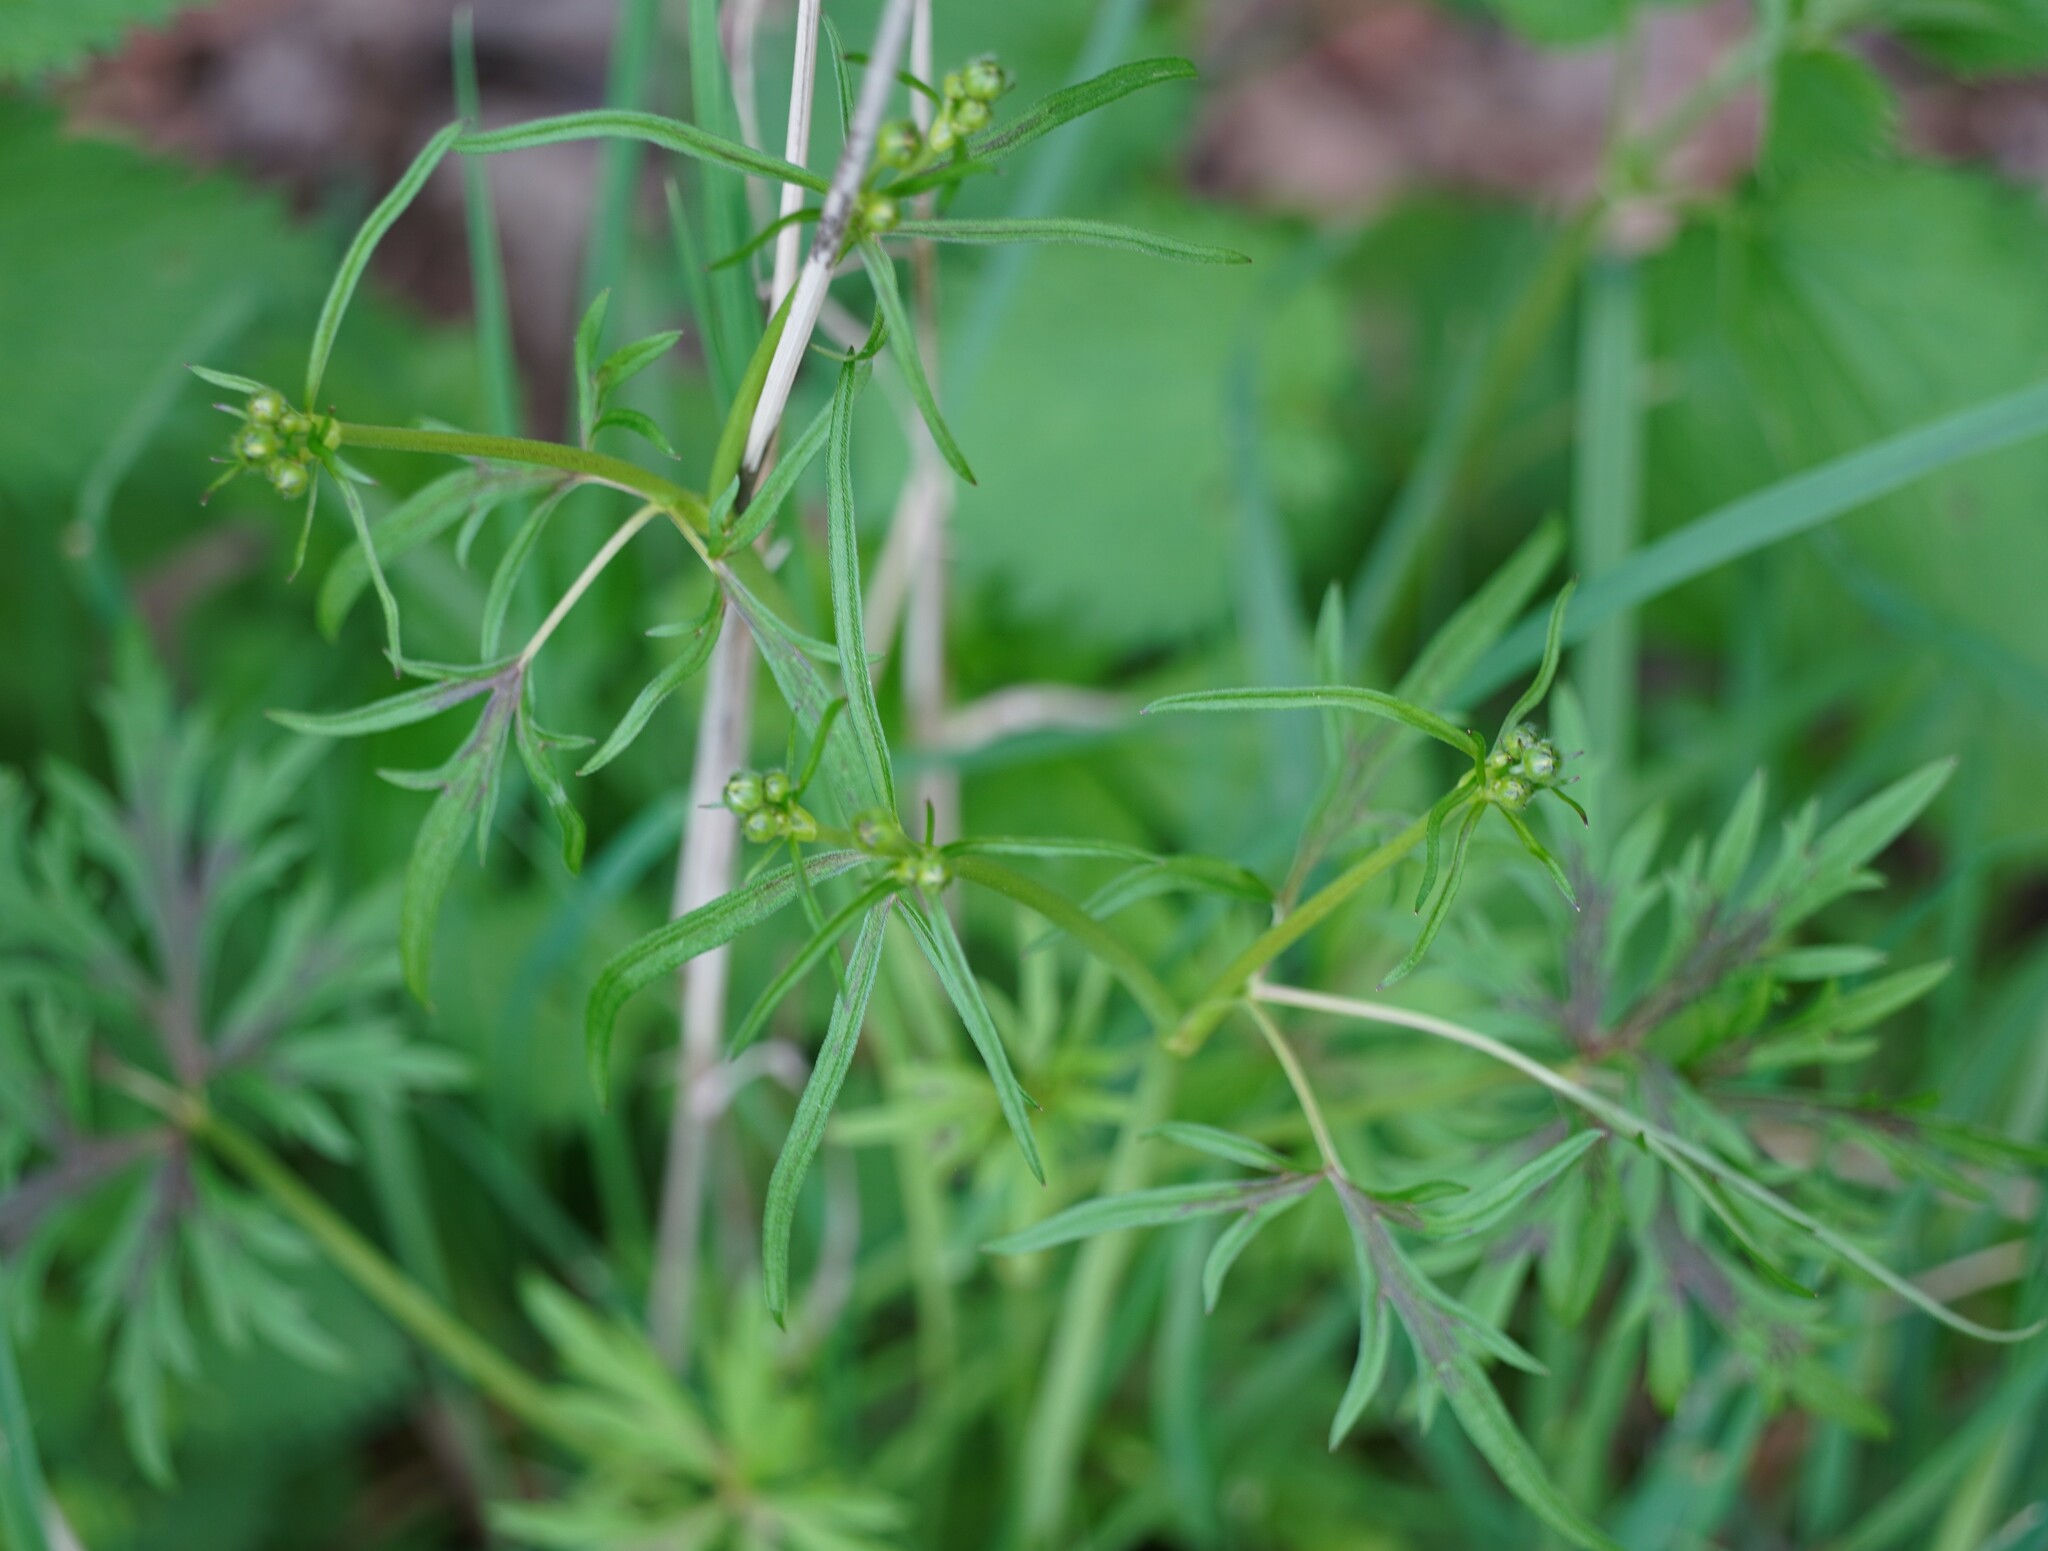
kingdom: Plantae
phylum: Tracheophyta
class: Magnoliopsida
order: Ranunculales
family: Ranunculaceae
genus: Ranunculus
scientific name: Ranunculus acris
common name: Meadow buttercup
